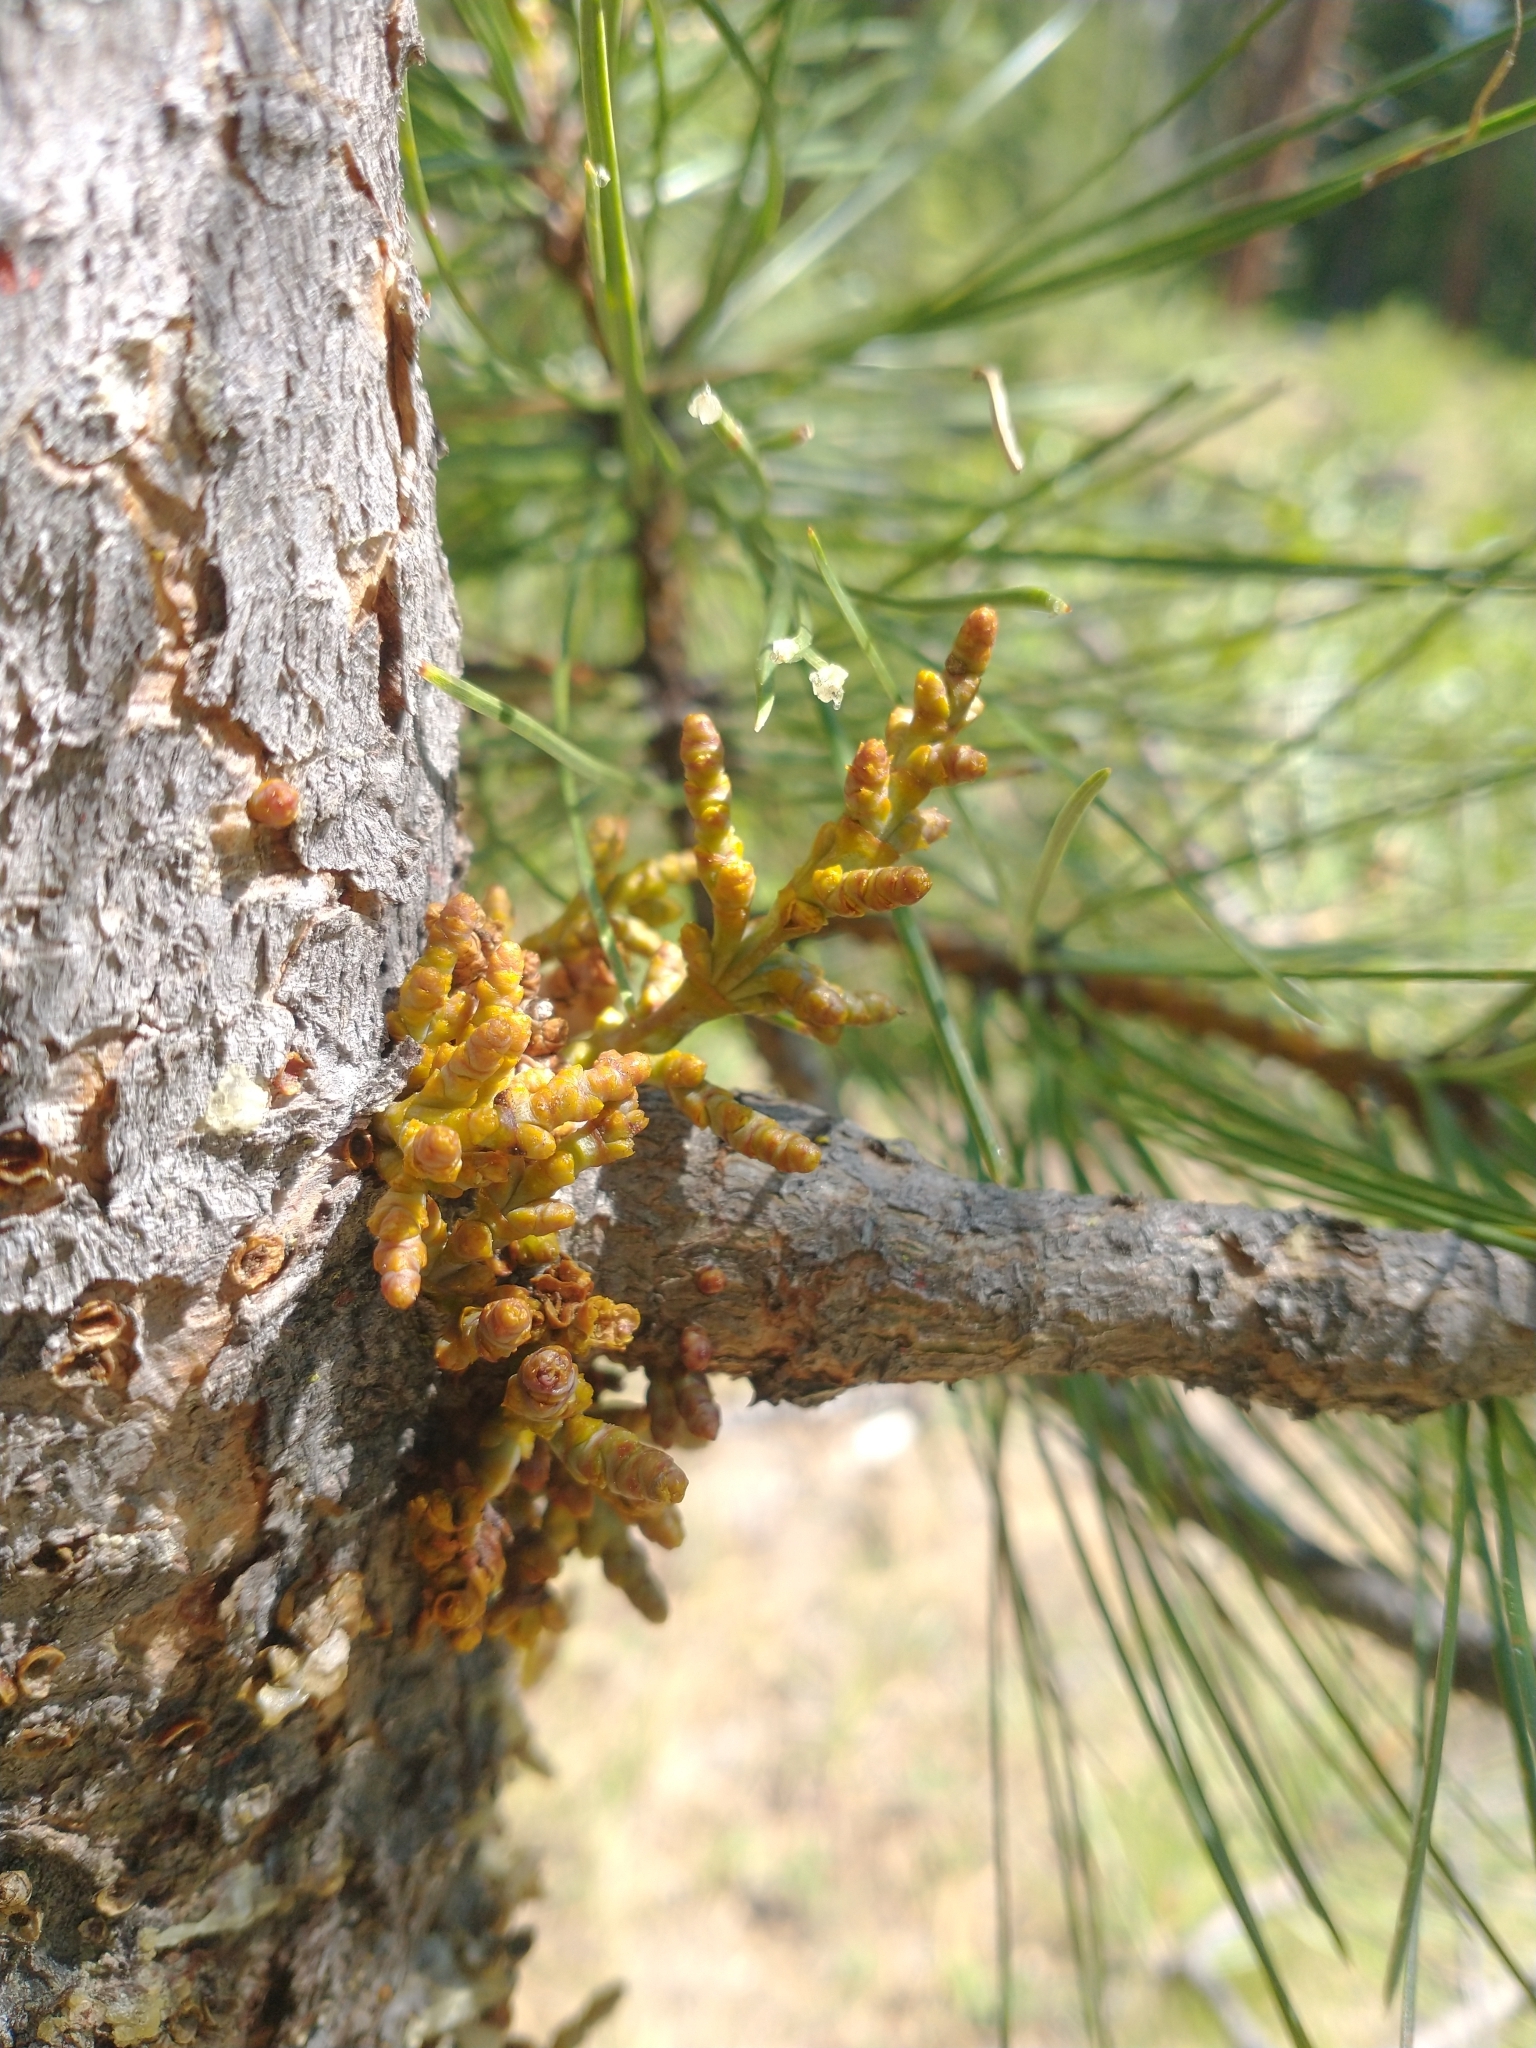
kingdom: Plantae
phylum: Tracheophyta
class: Magnoliopsida
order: Santalales
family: Viscaceae
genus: Arceuthobium
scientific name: Arceuthobium campylopodum
